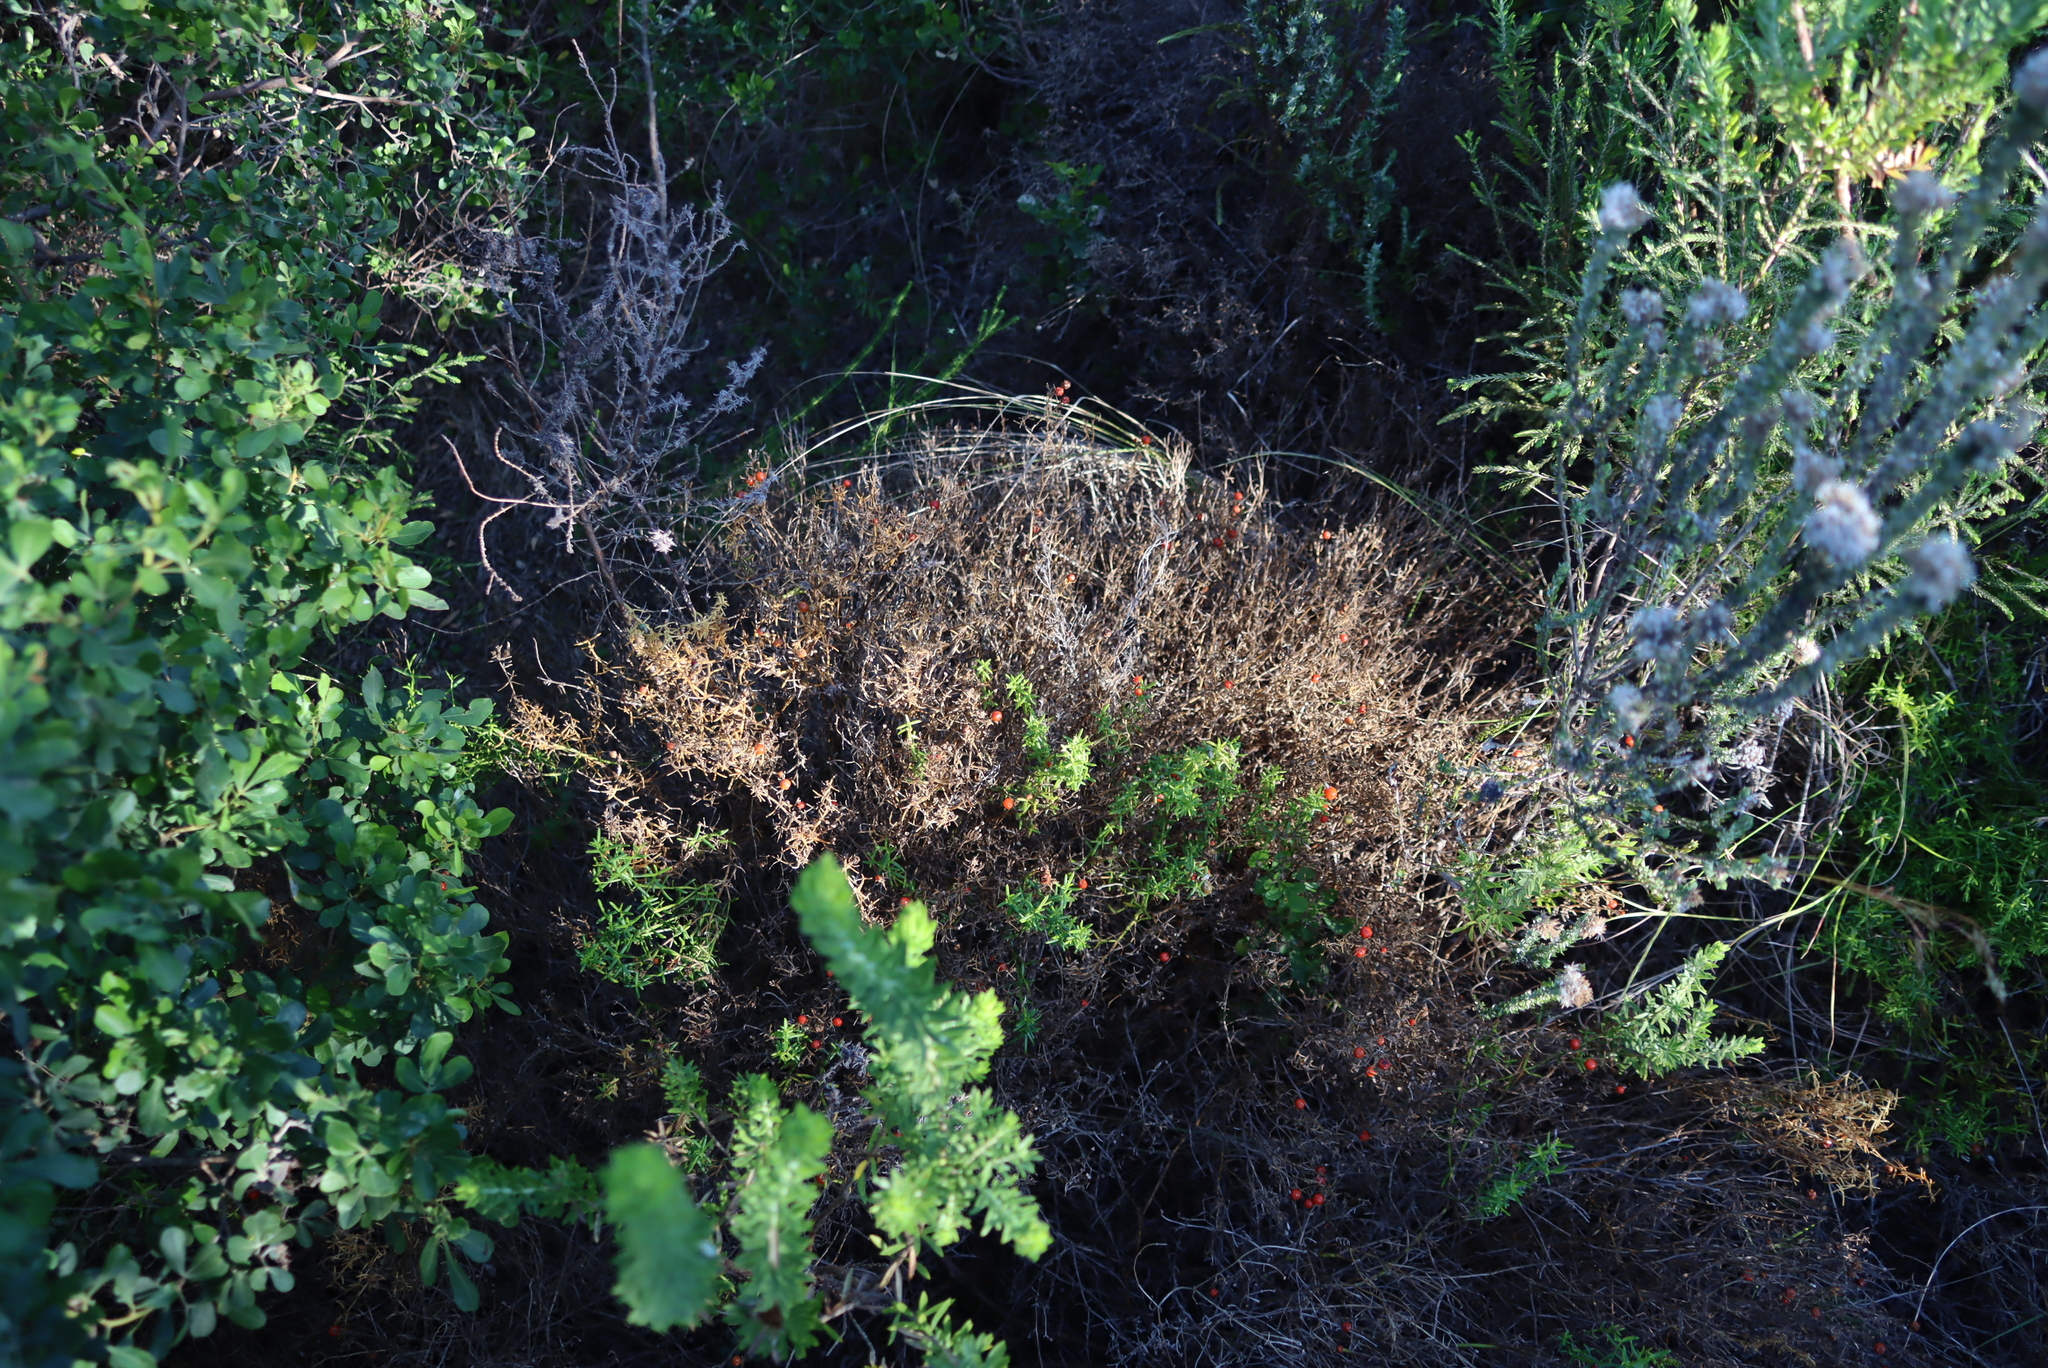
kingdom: Plantae
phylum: Tracheophyta
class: Magnoliopsida
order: Gentianales
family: Gentianaceae
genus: Chironia
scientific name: Chironia baccifera
